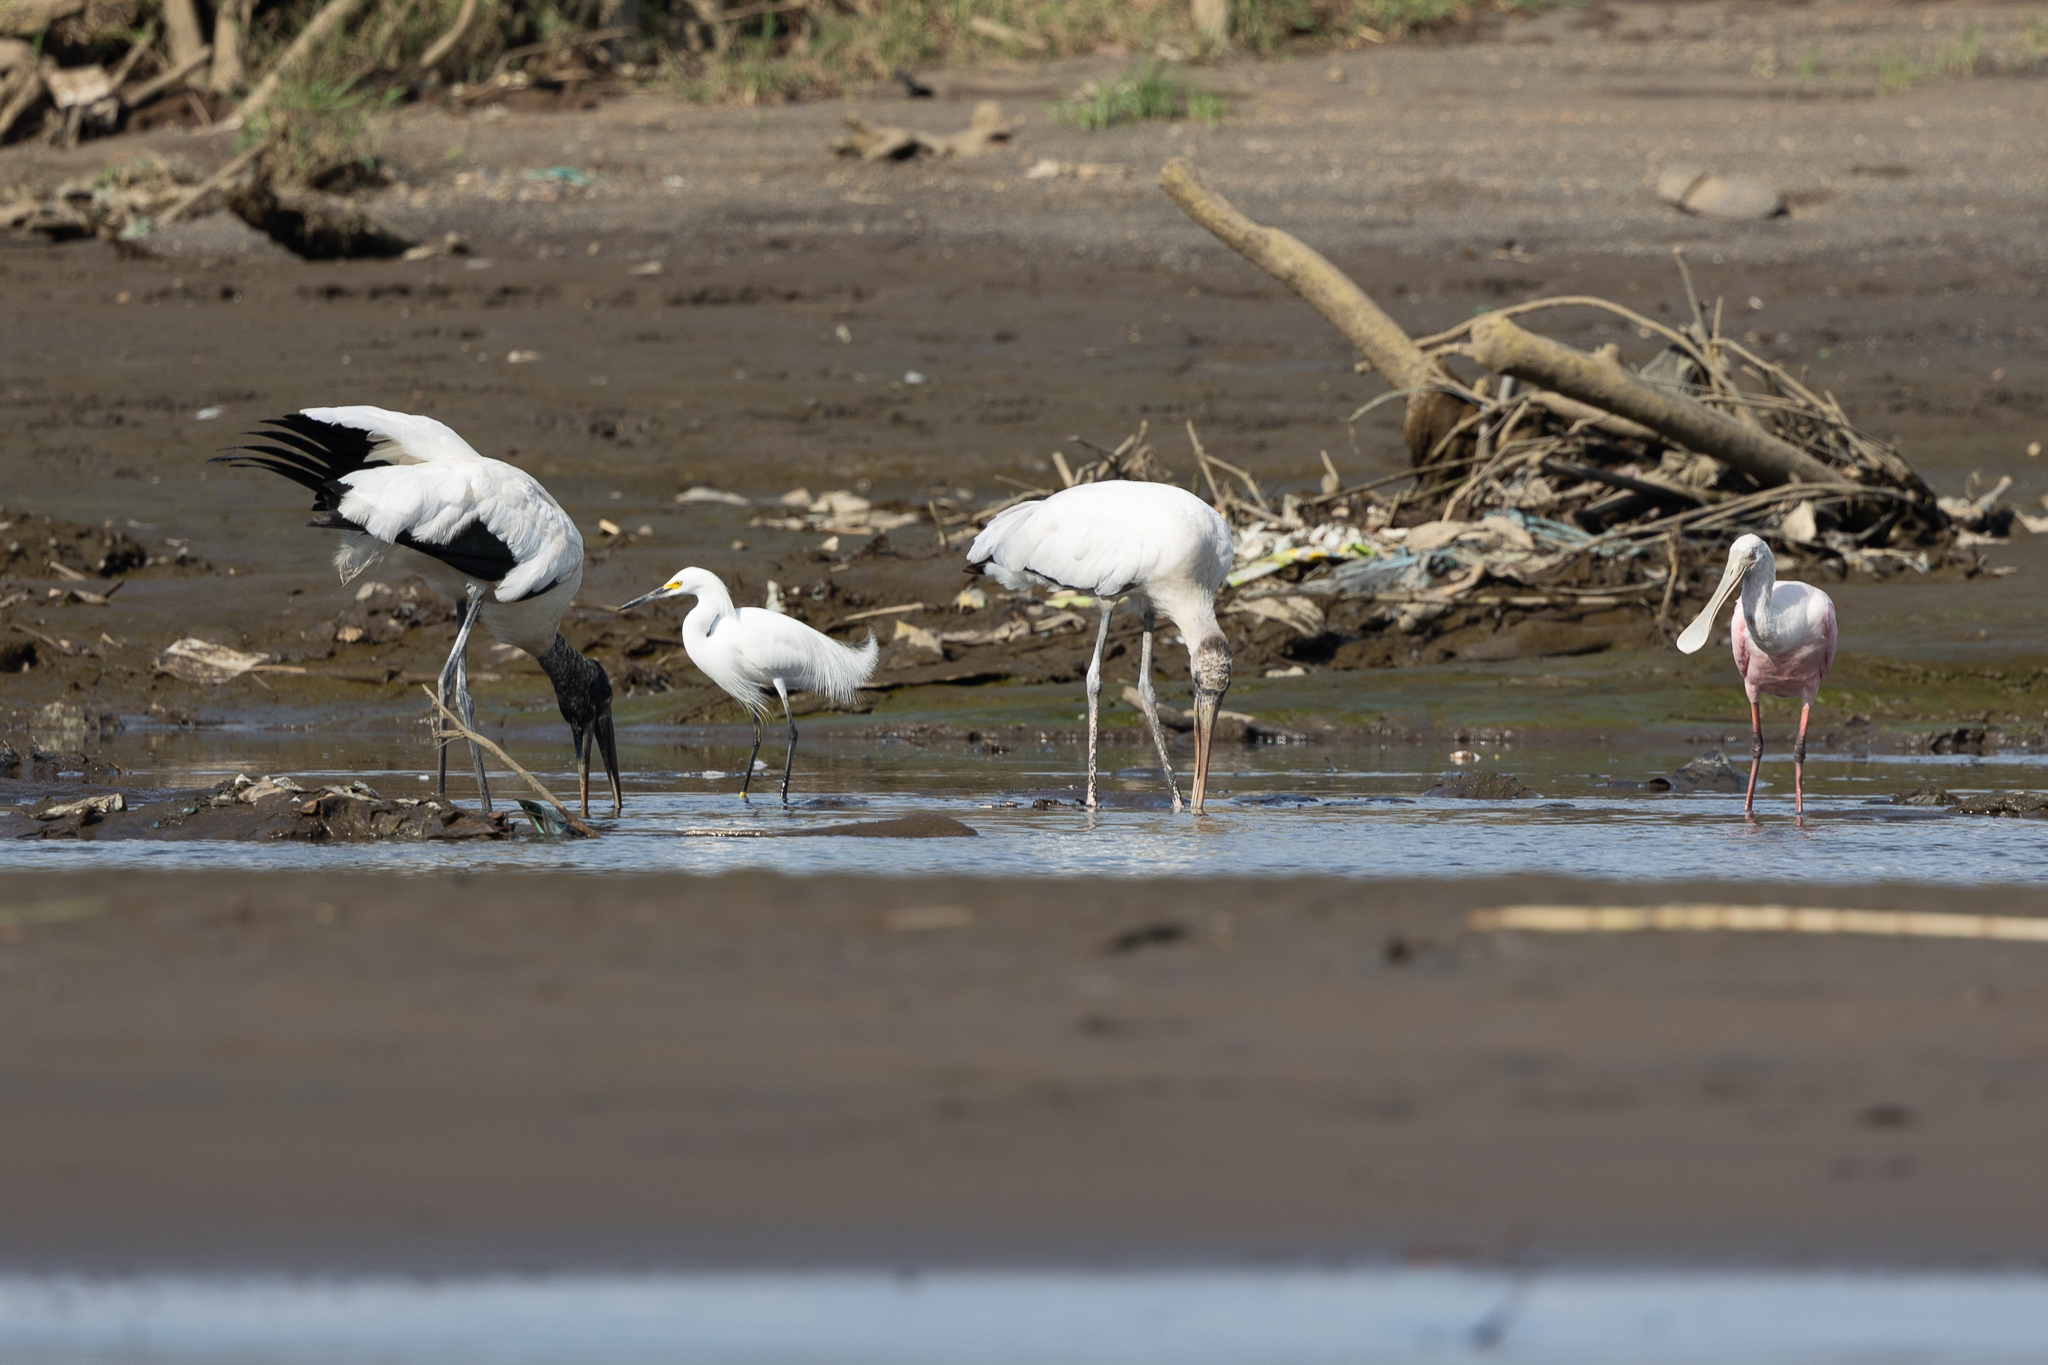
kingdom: Animalia
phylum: Chordata
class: Aves
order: Ciconiiformes
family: Ciconiidae
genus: Mycteria
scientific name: Mycteria americana
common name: Wood stork
